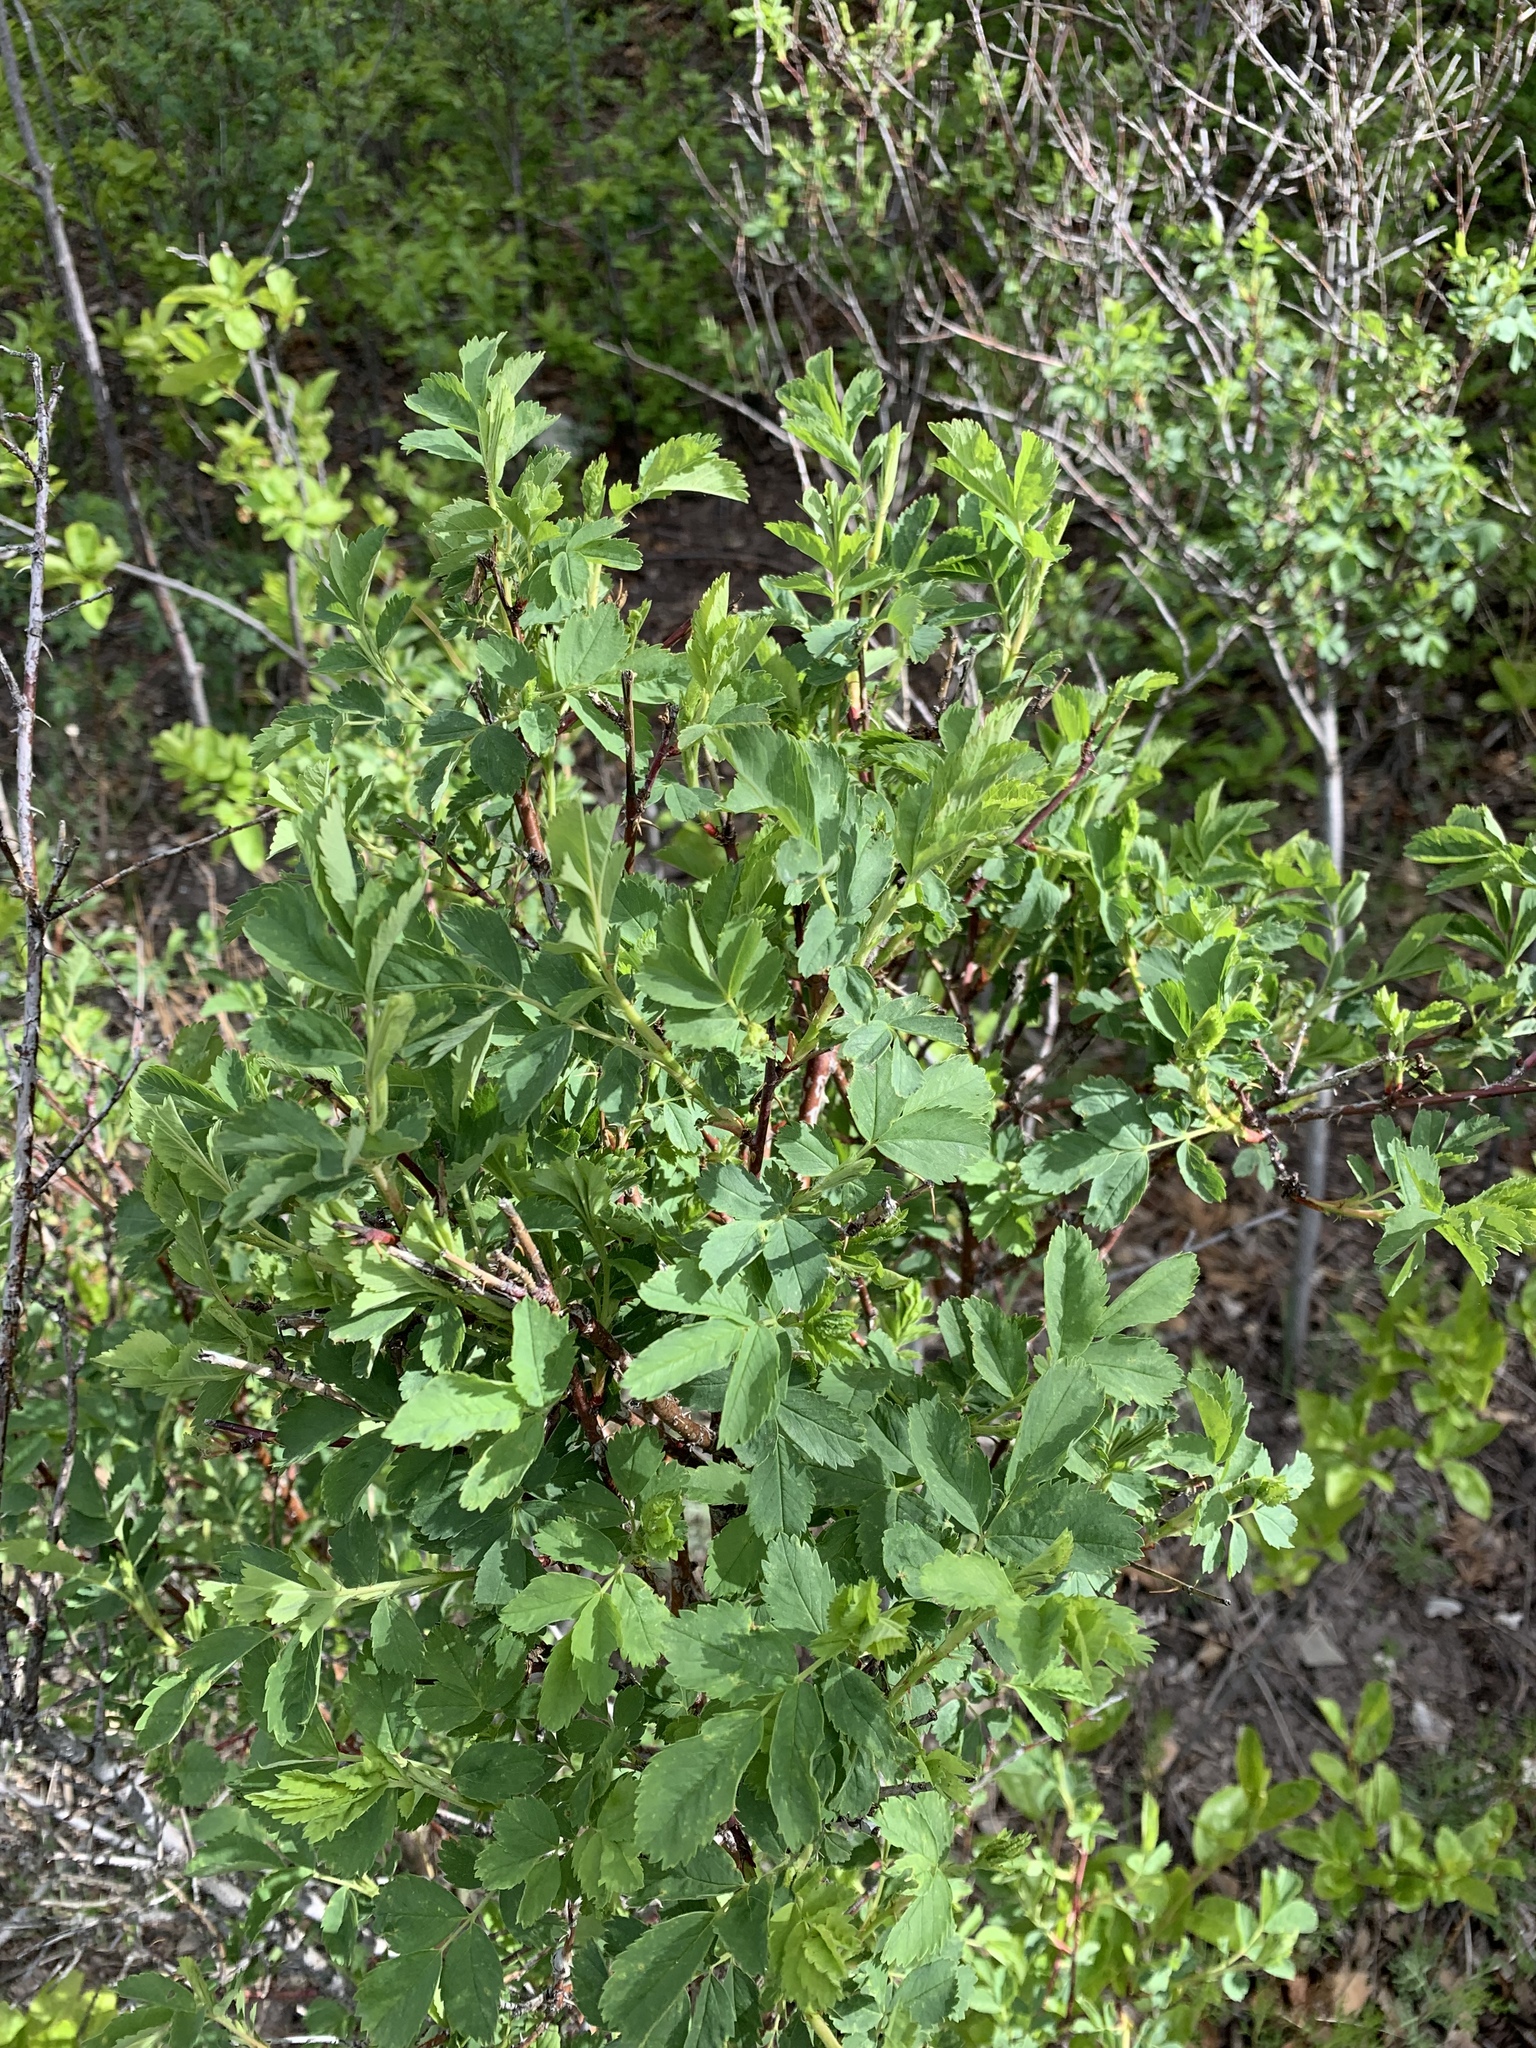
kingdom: Plantae
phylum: Tracheophyta
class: Magnoliopsida
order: Rosales
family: Rosaceae
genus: Rosa
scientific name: Rosa woodsii
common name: Woods's rose
